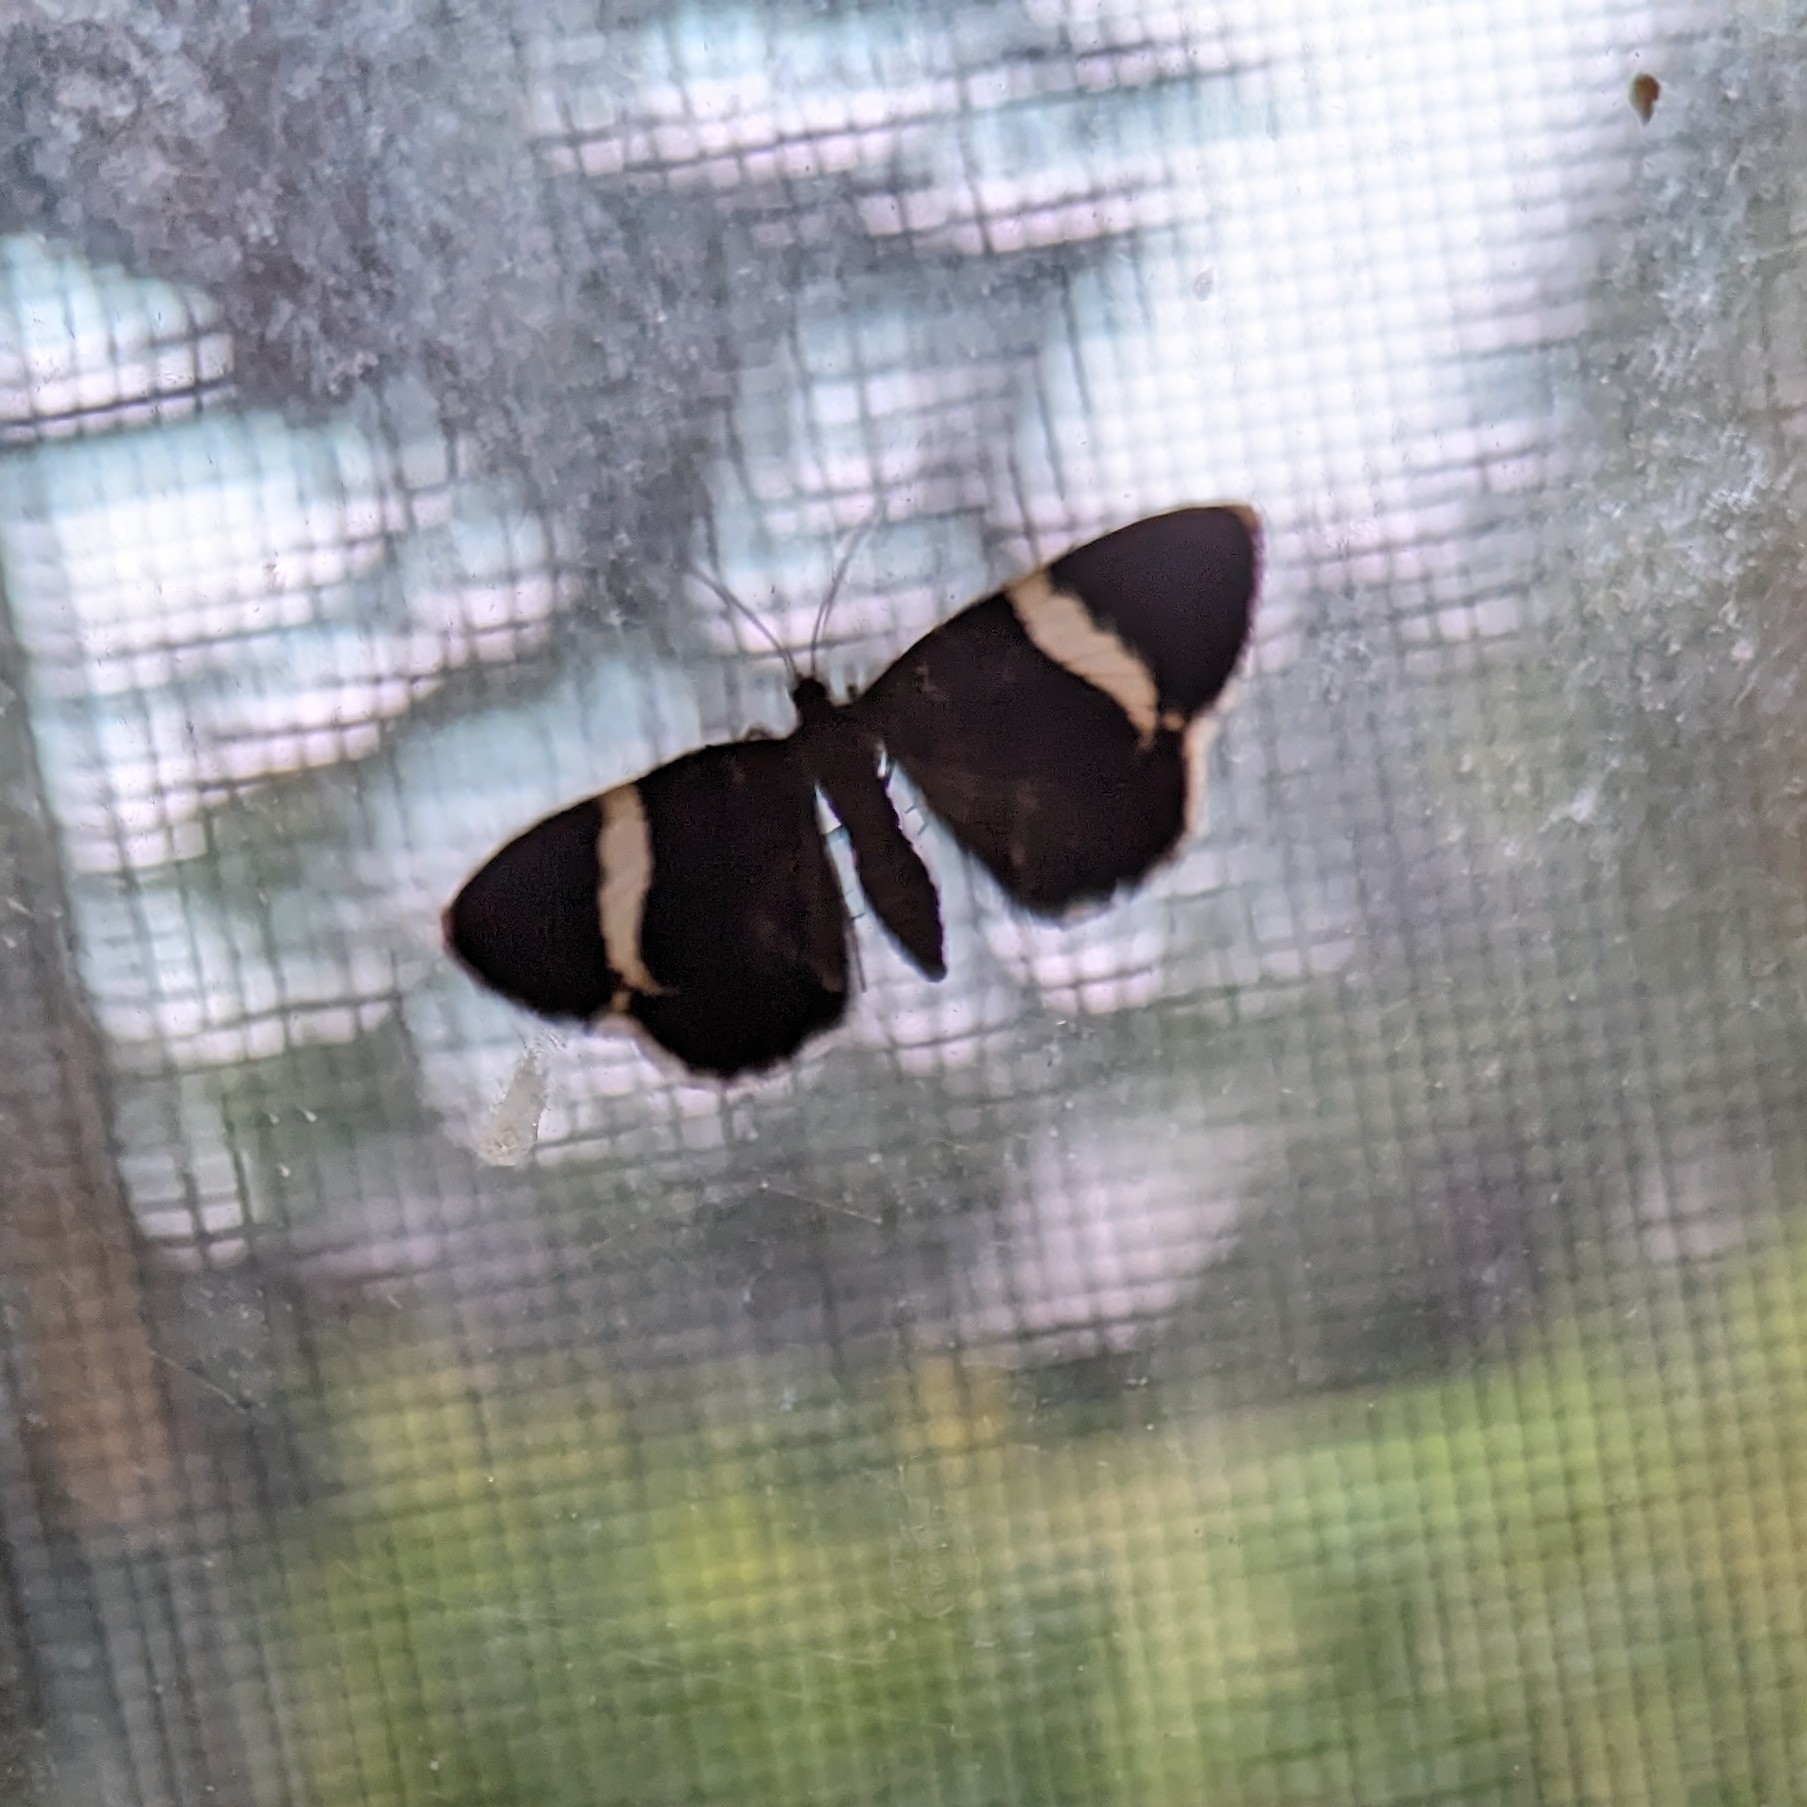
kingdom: Animalia
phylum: Arthropoda
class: Insecta
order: Lepidoptera
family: Geometridae
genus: Trichodezia
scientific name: Trichodezia albovittata
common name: White striped black
